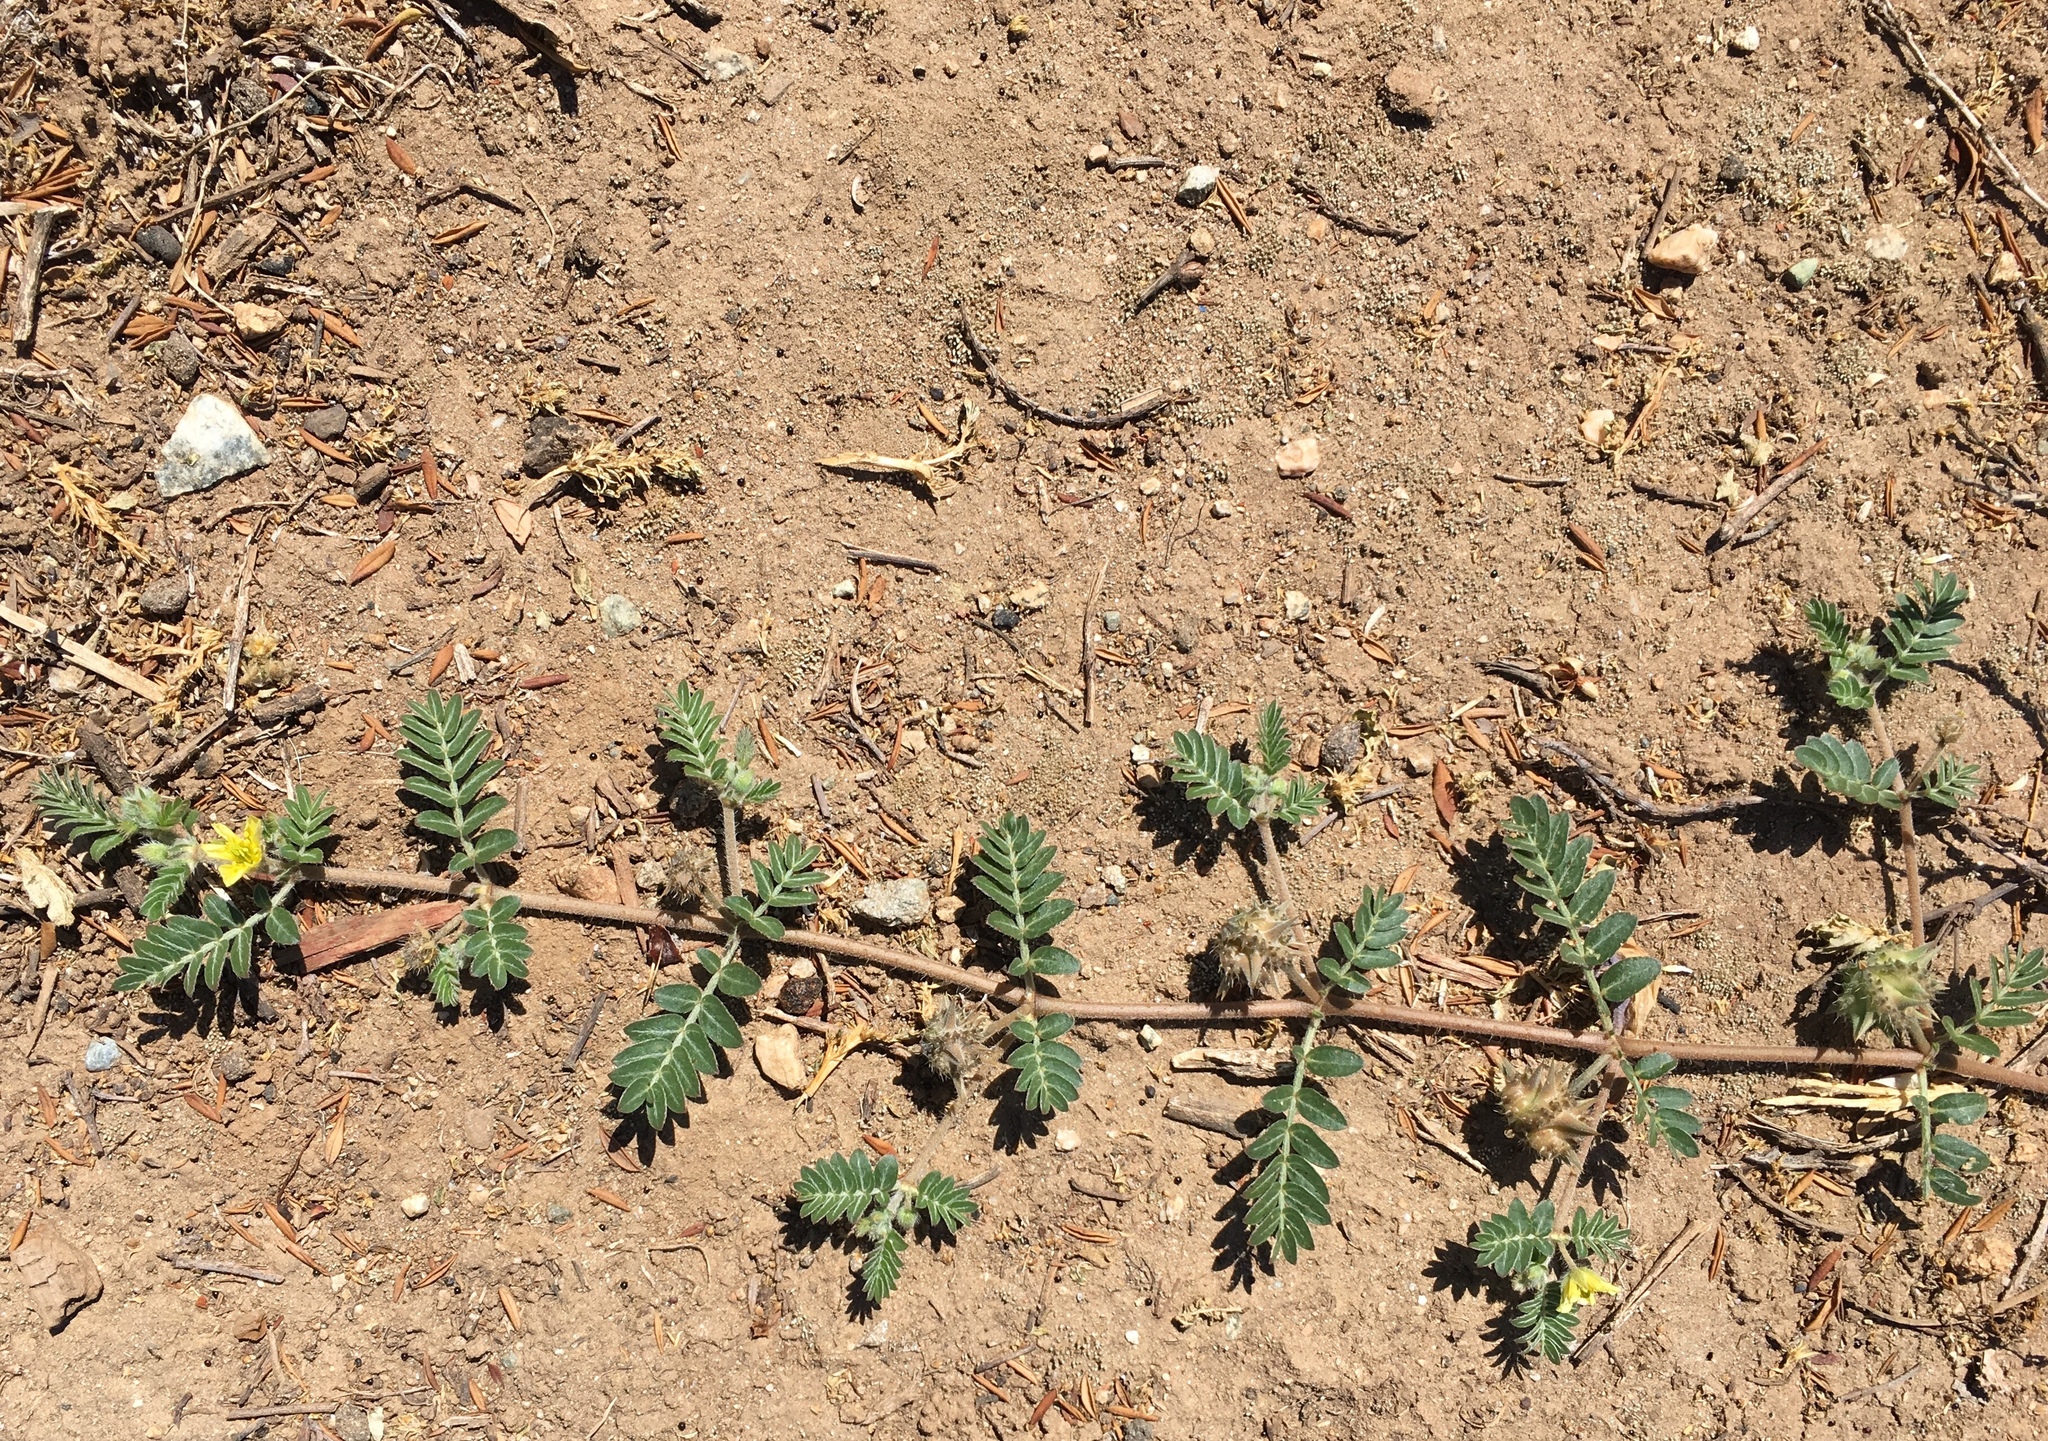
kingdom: Plantae
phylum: Tracheophyta
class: Magnoliopsida
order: Zygophyllales
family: Zygophyllaceae
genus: Tribulus
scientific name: Tribulus terrestris
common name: Puncturevine
